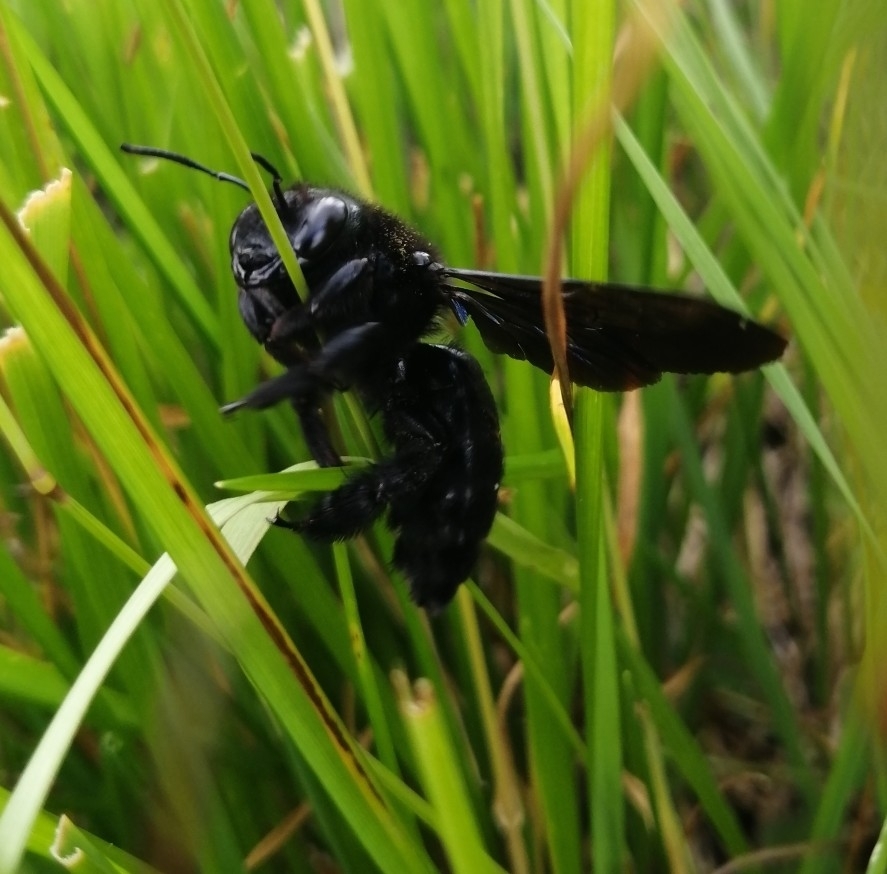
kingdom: Animalia
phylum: Arthropoda
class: Insecta
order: Hymenoptera
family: Apidae
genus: Xylocopa
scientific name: Xylocopa violacea
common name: Violet carpenter bee
